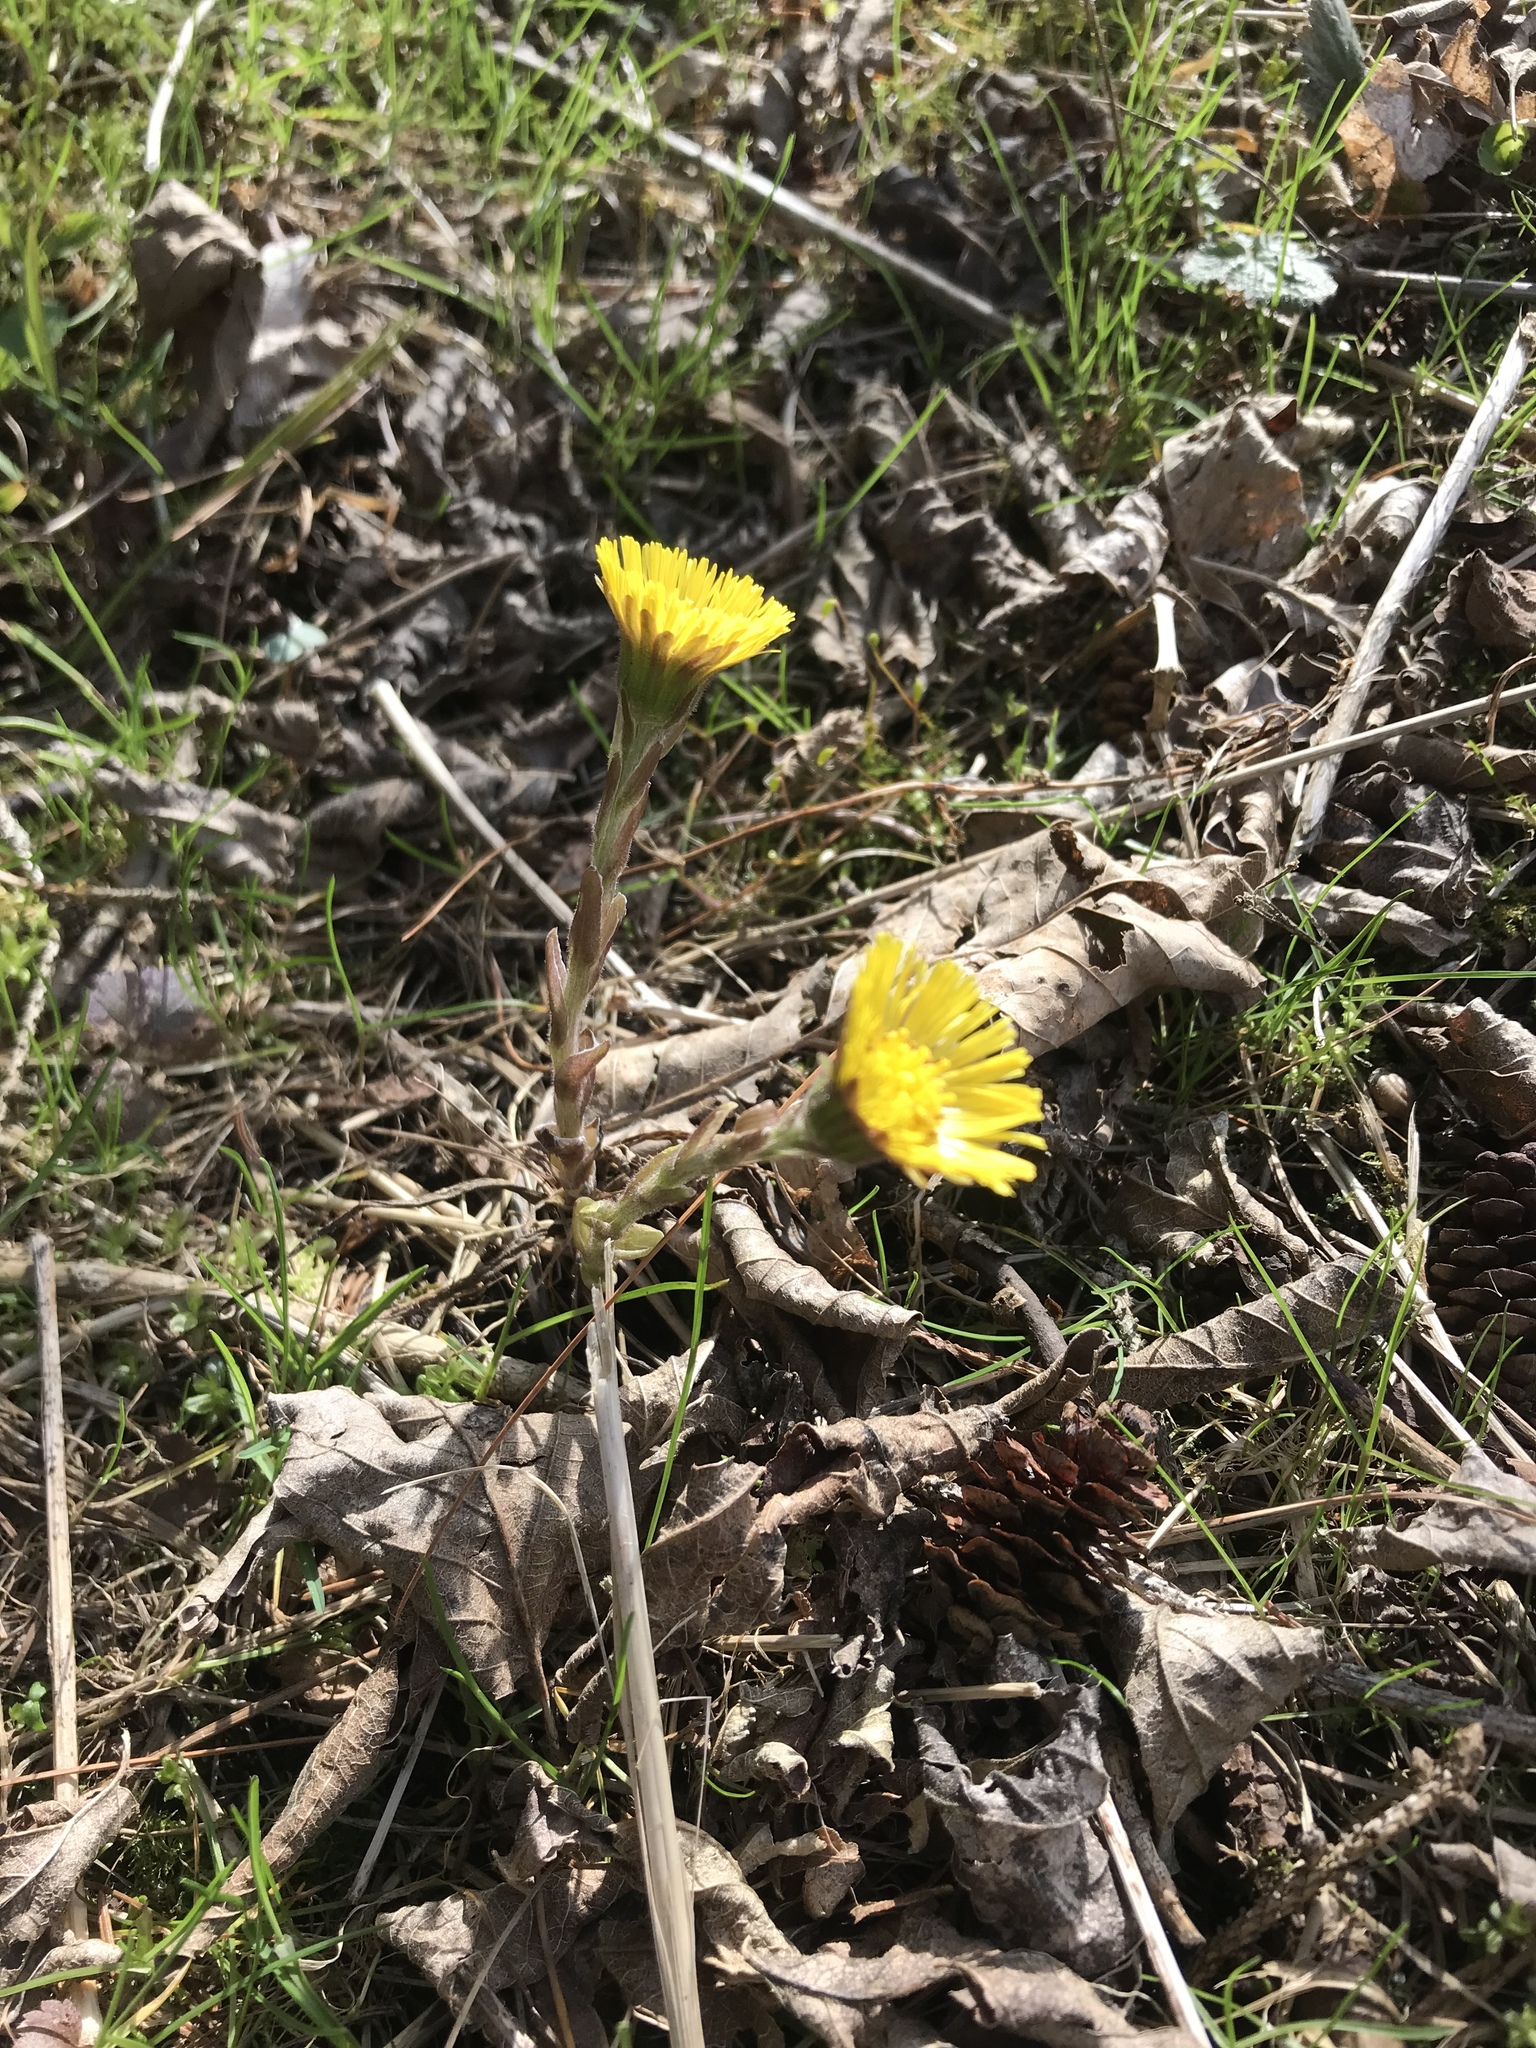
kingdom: Plantae
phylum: Tracheophyta
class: Magnoliopsida
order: Asterales
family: Asteraceae
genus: Tussilago
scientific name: Tussilago farfara
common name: Coltsfoot
